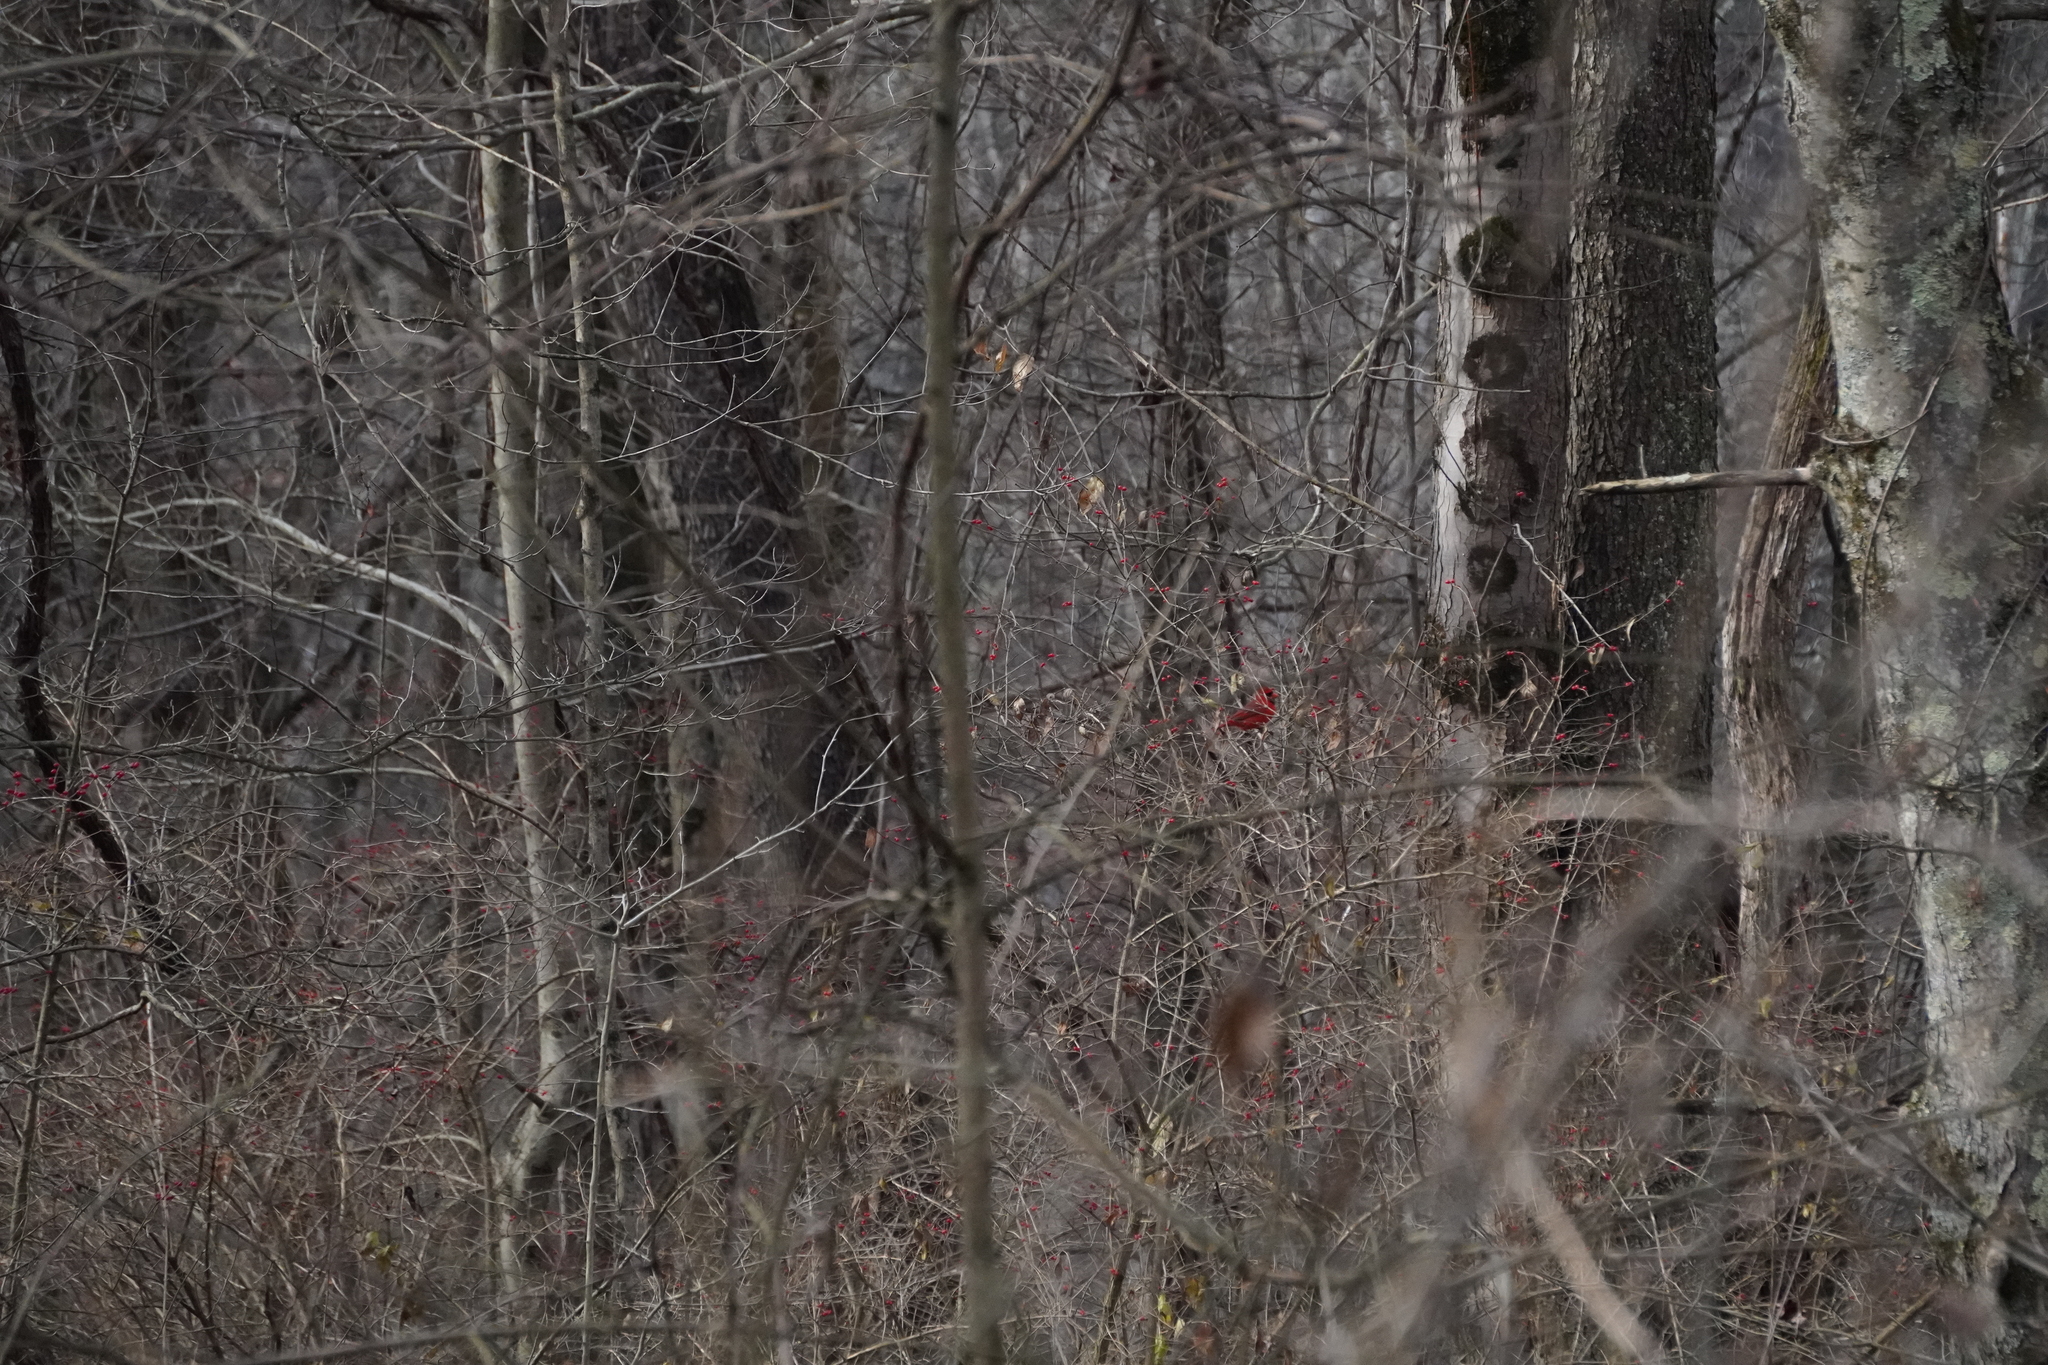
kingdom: Animalia
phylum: Chordata
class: Aves
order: Passeriformes
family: Cardinalidae
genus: Cardinalis
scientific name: Cardinalis cardinalis
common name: Northern cardinal
